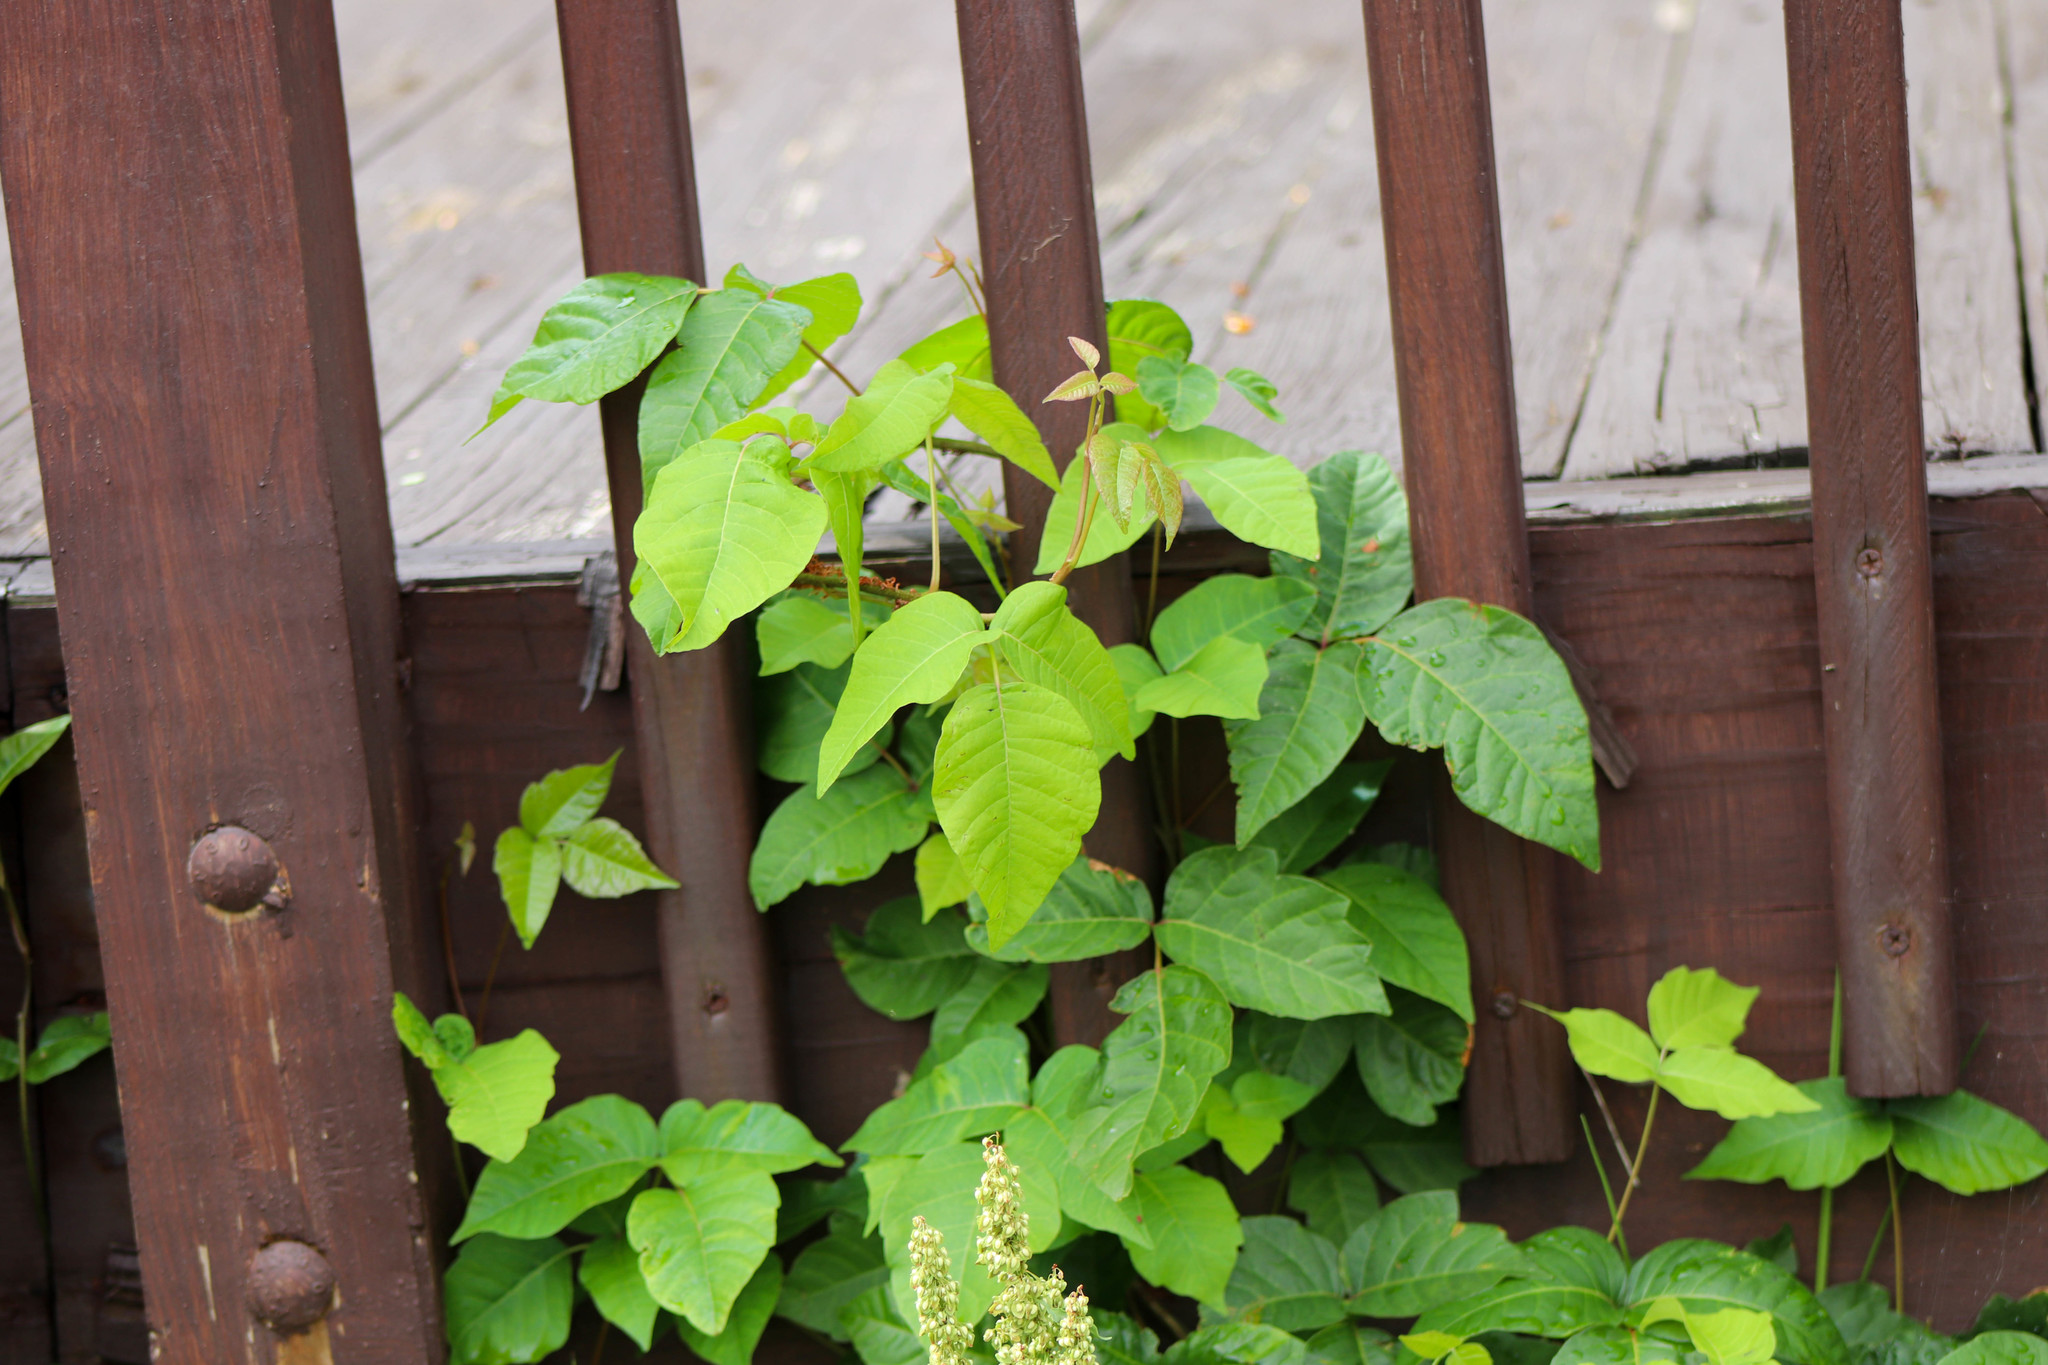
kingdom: Plantae
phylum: Tracheophyta
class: Magnoliopsida
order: Sapindales
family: Anacardiaceae
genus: Toxicodendron
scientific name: Toxicodendron radicans
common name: Poison ivy
